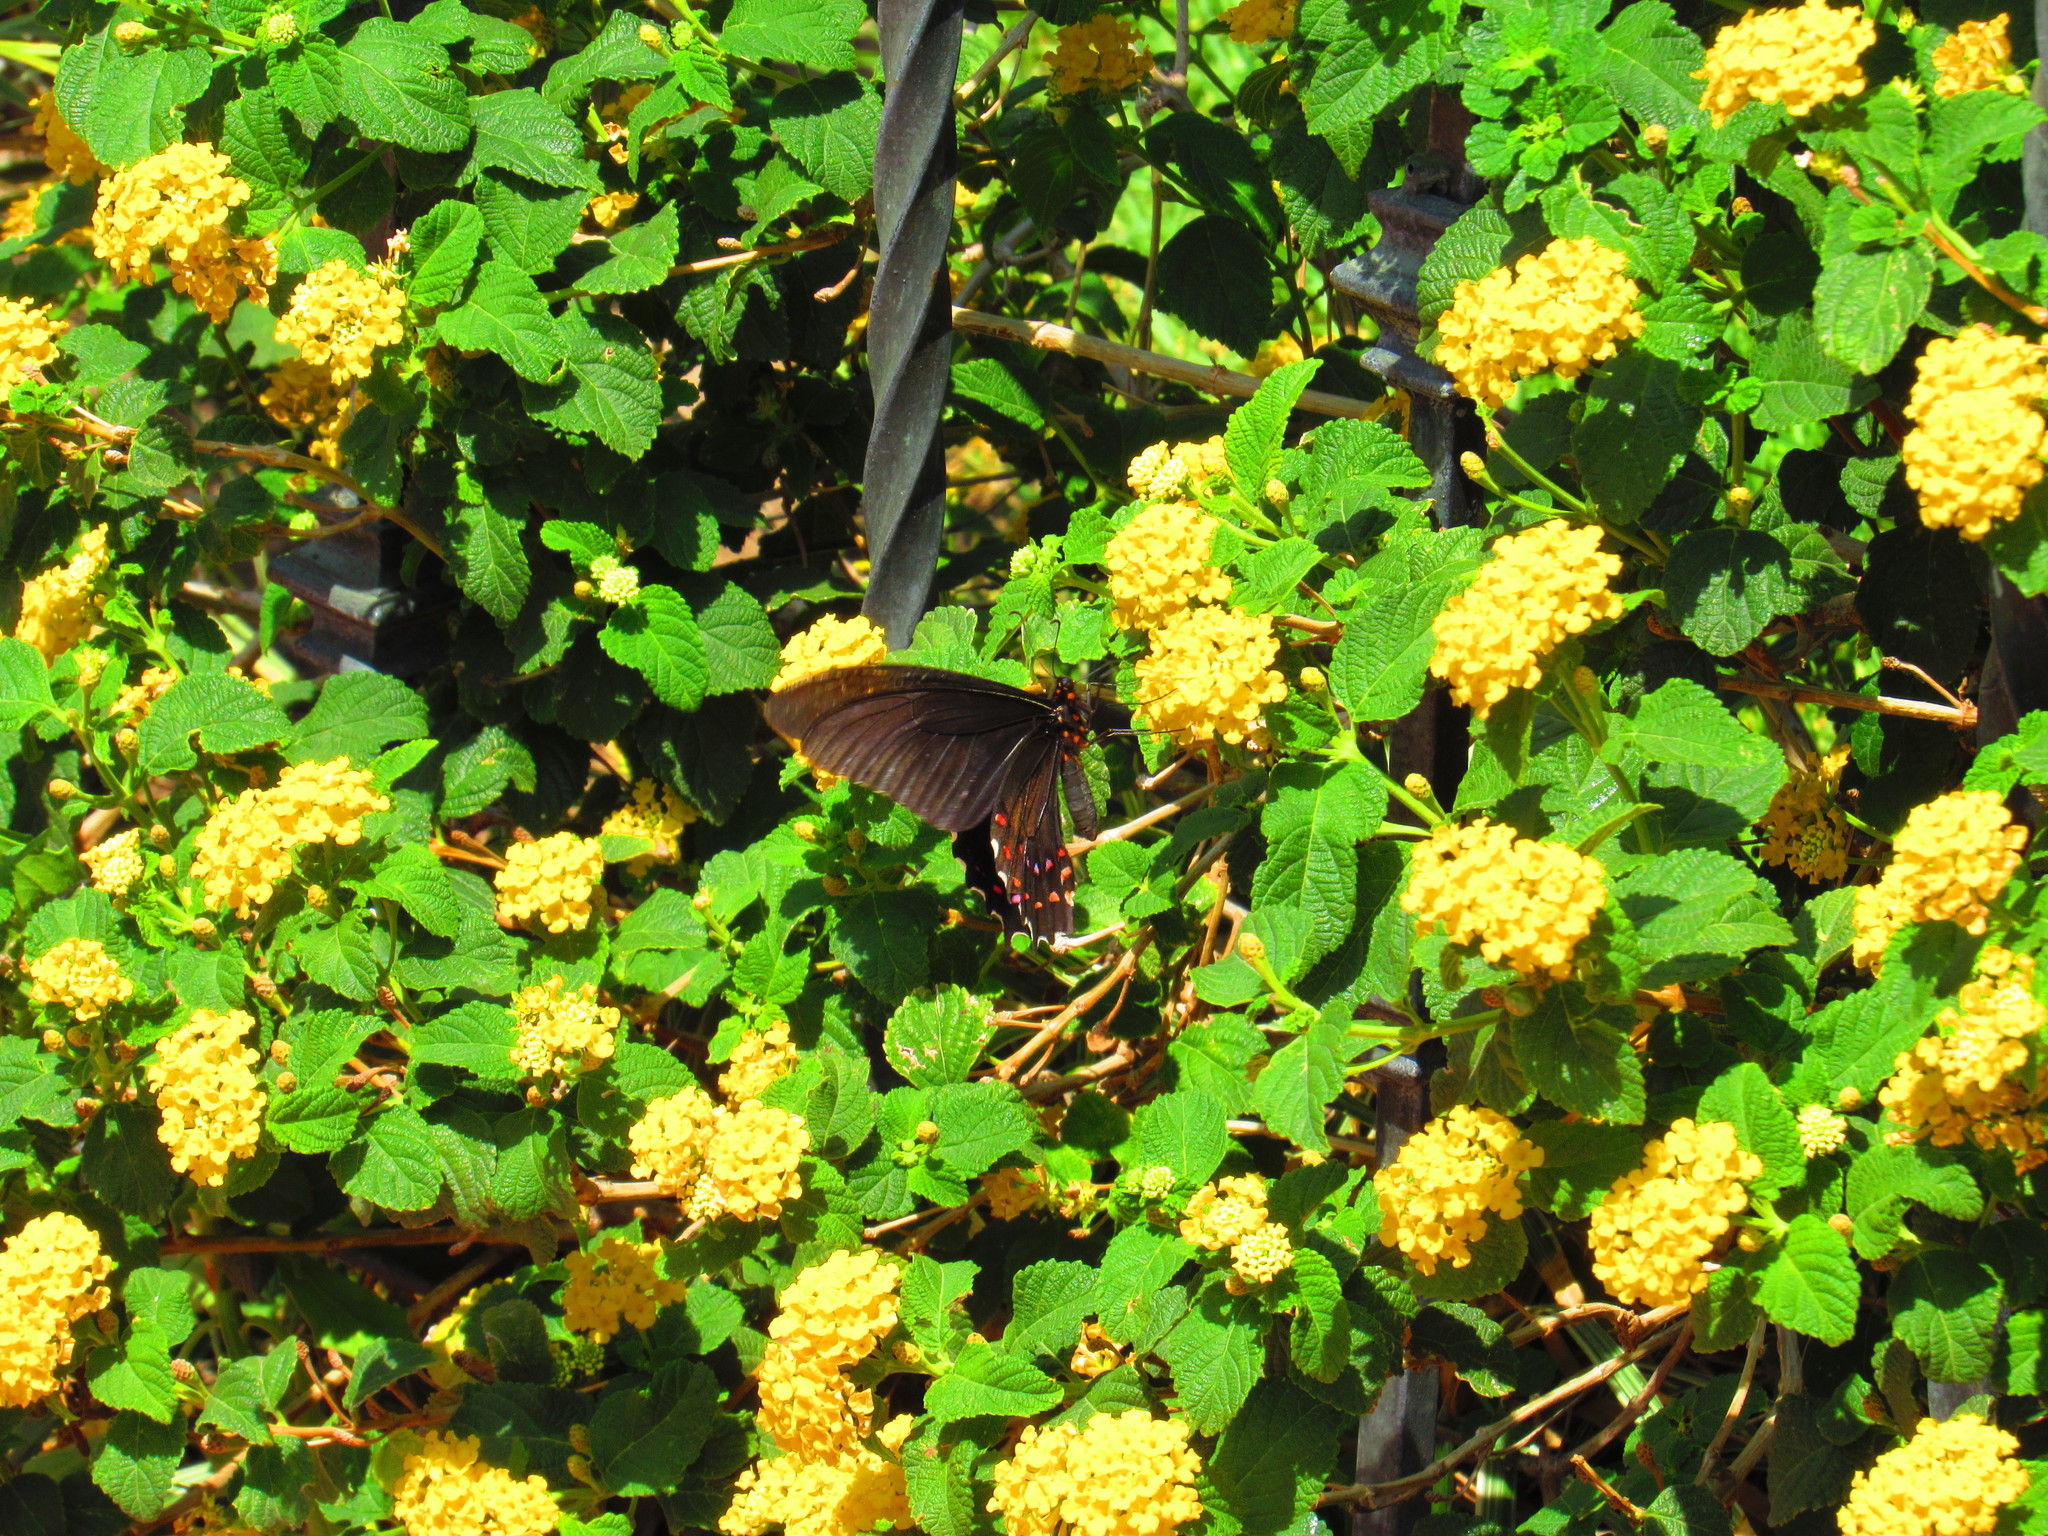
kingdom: Animalia
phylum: Arthropoda
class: Insecta
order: Lepidoptera
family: Papilionidae
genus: Heraclides
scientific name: Heraclides rogeri
